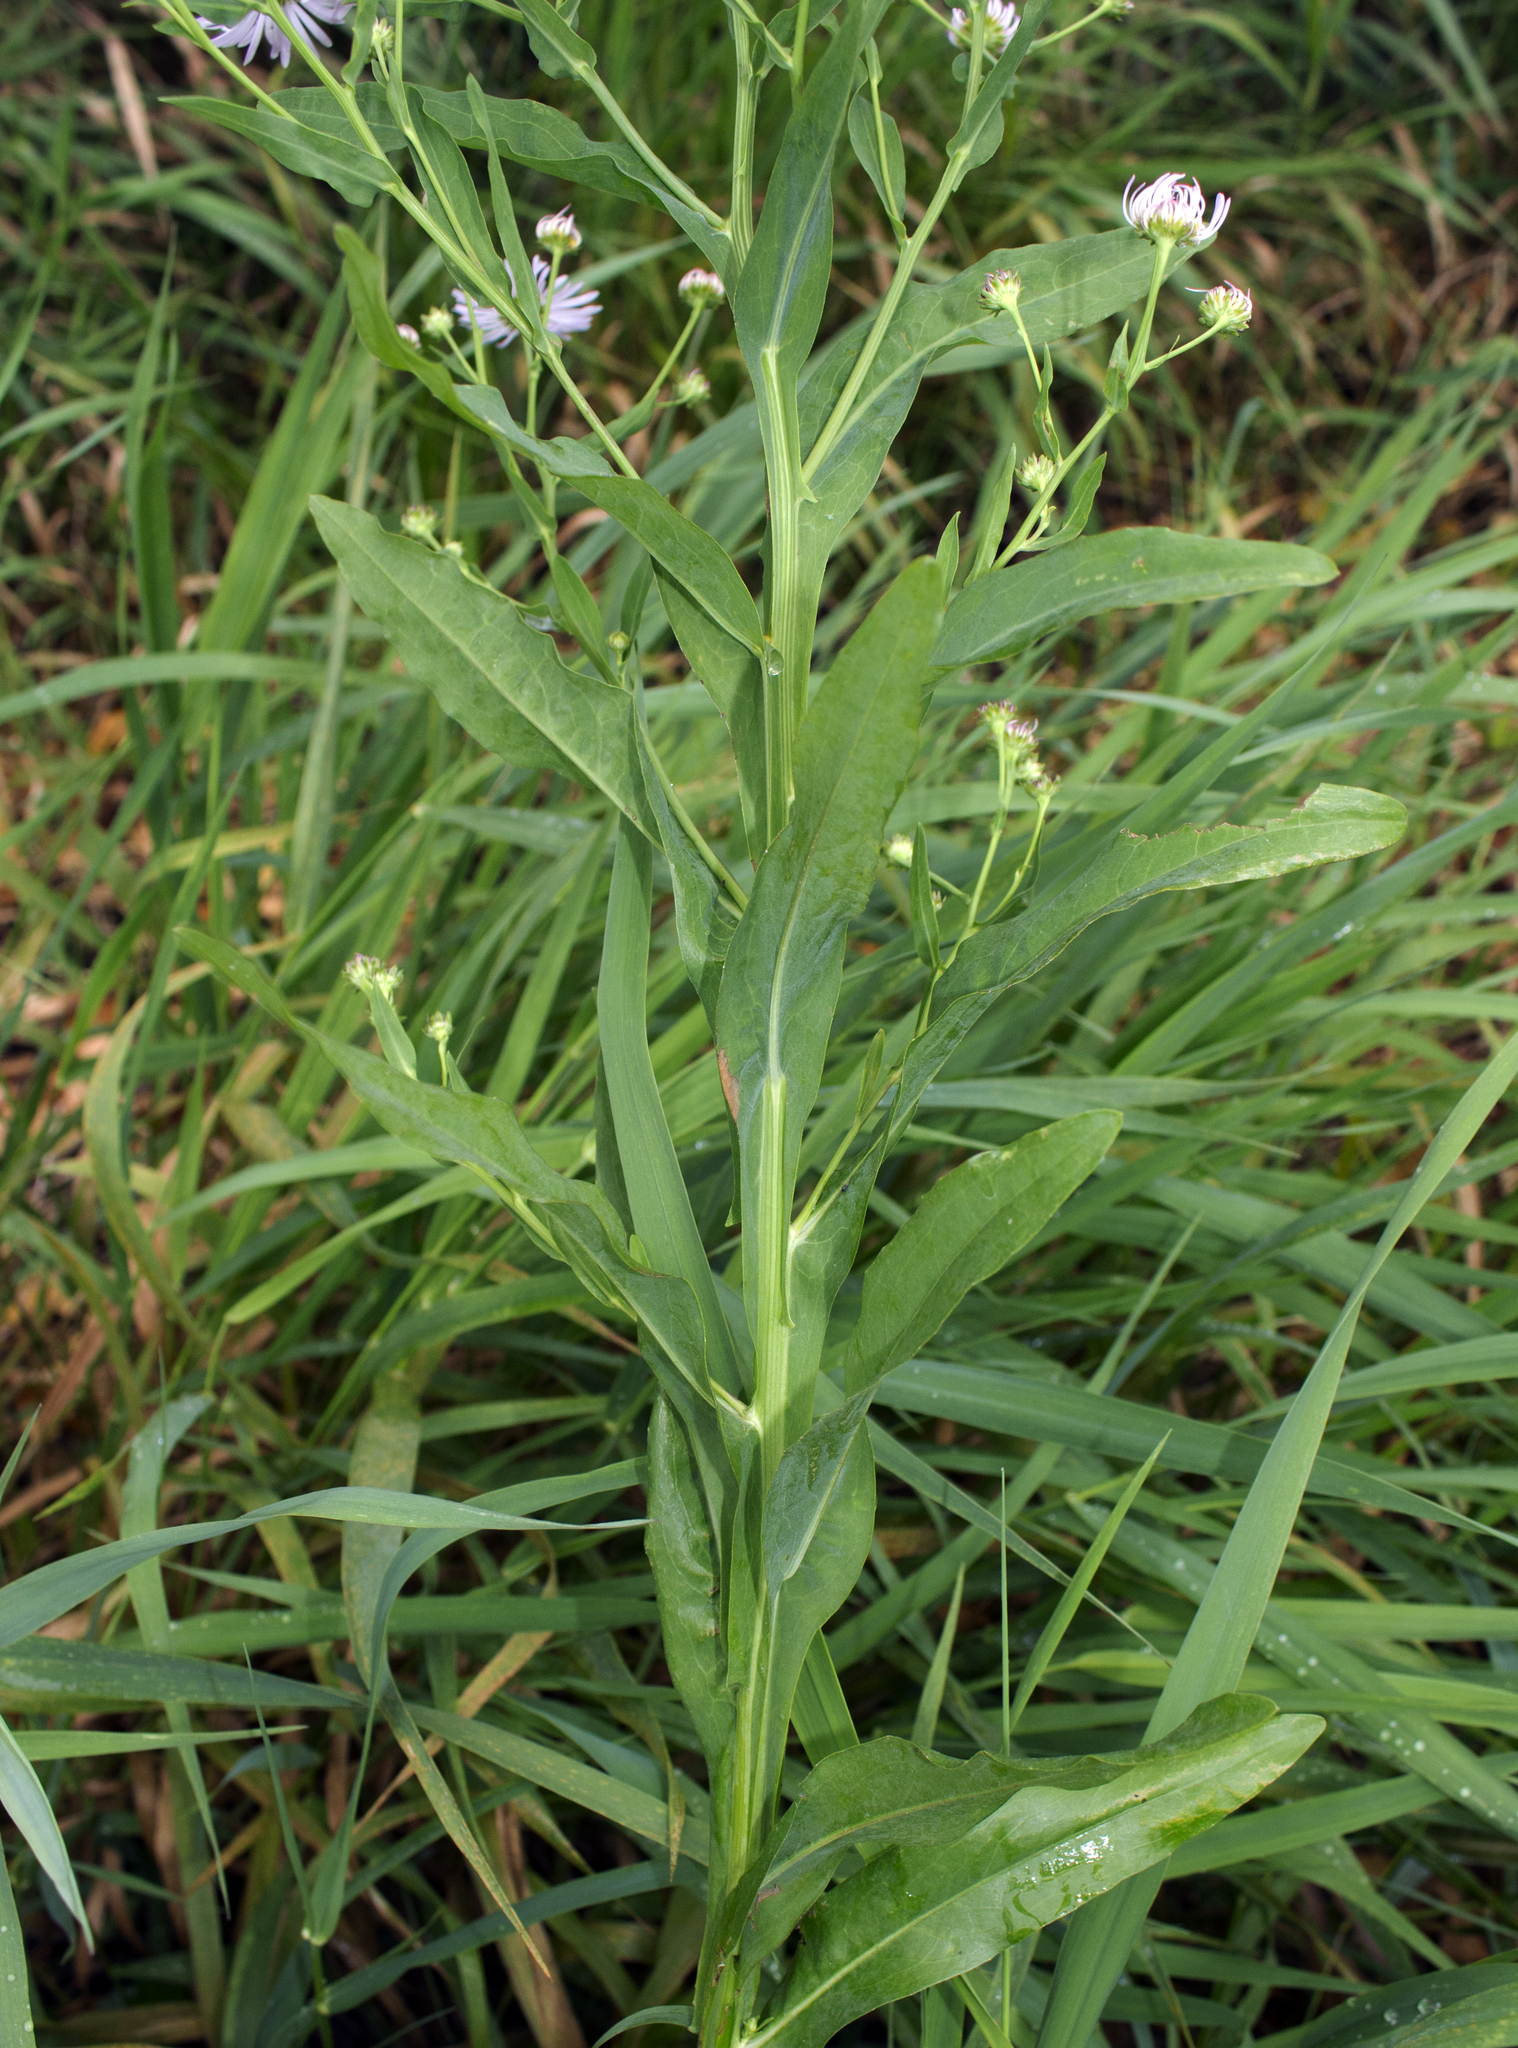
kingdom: Plantae
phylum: Tracheophyta
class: Magnoliopsida
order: Asterales
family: Asteraceae
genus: Boltonia
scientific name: Boltonia decurrens
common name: Decurrent false aster
